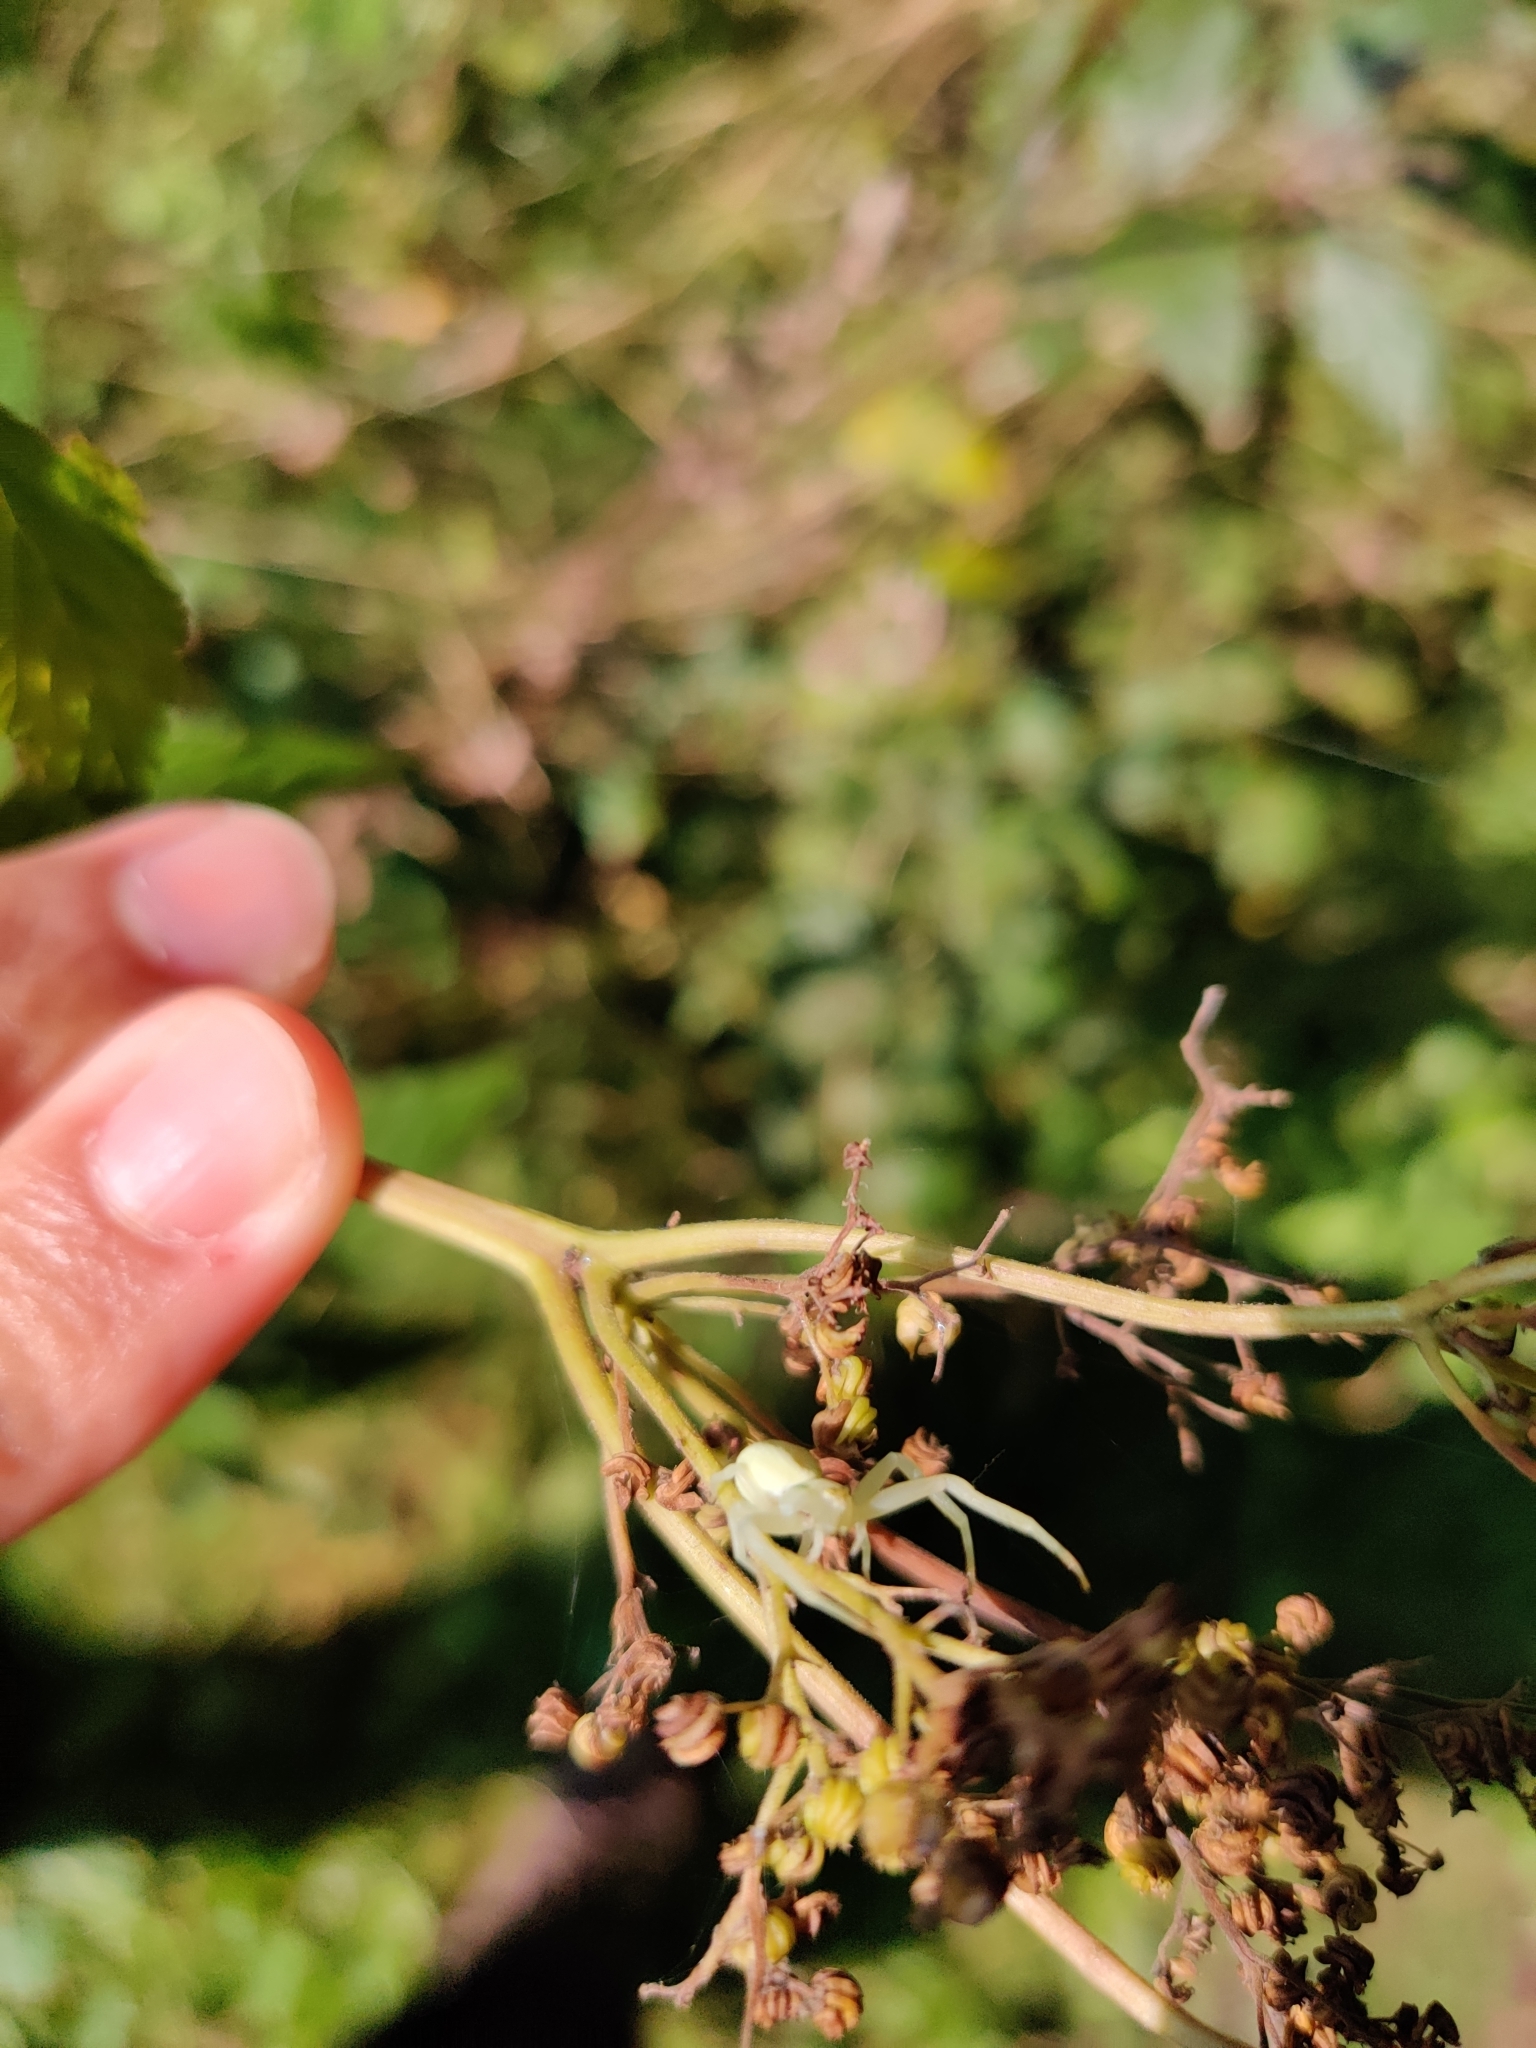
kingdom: Animalia
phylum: Arthropoda
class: Arachnida
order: Araneae
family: Thomisidae
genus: Misumena
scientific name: Misumena vatia
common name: Goldenrod crab spider
